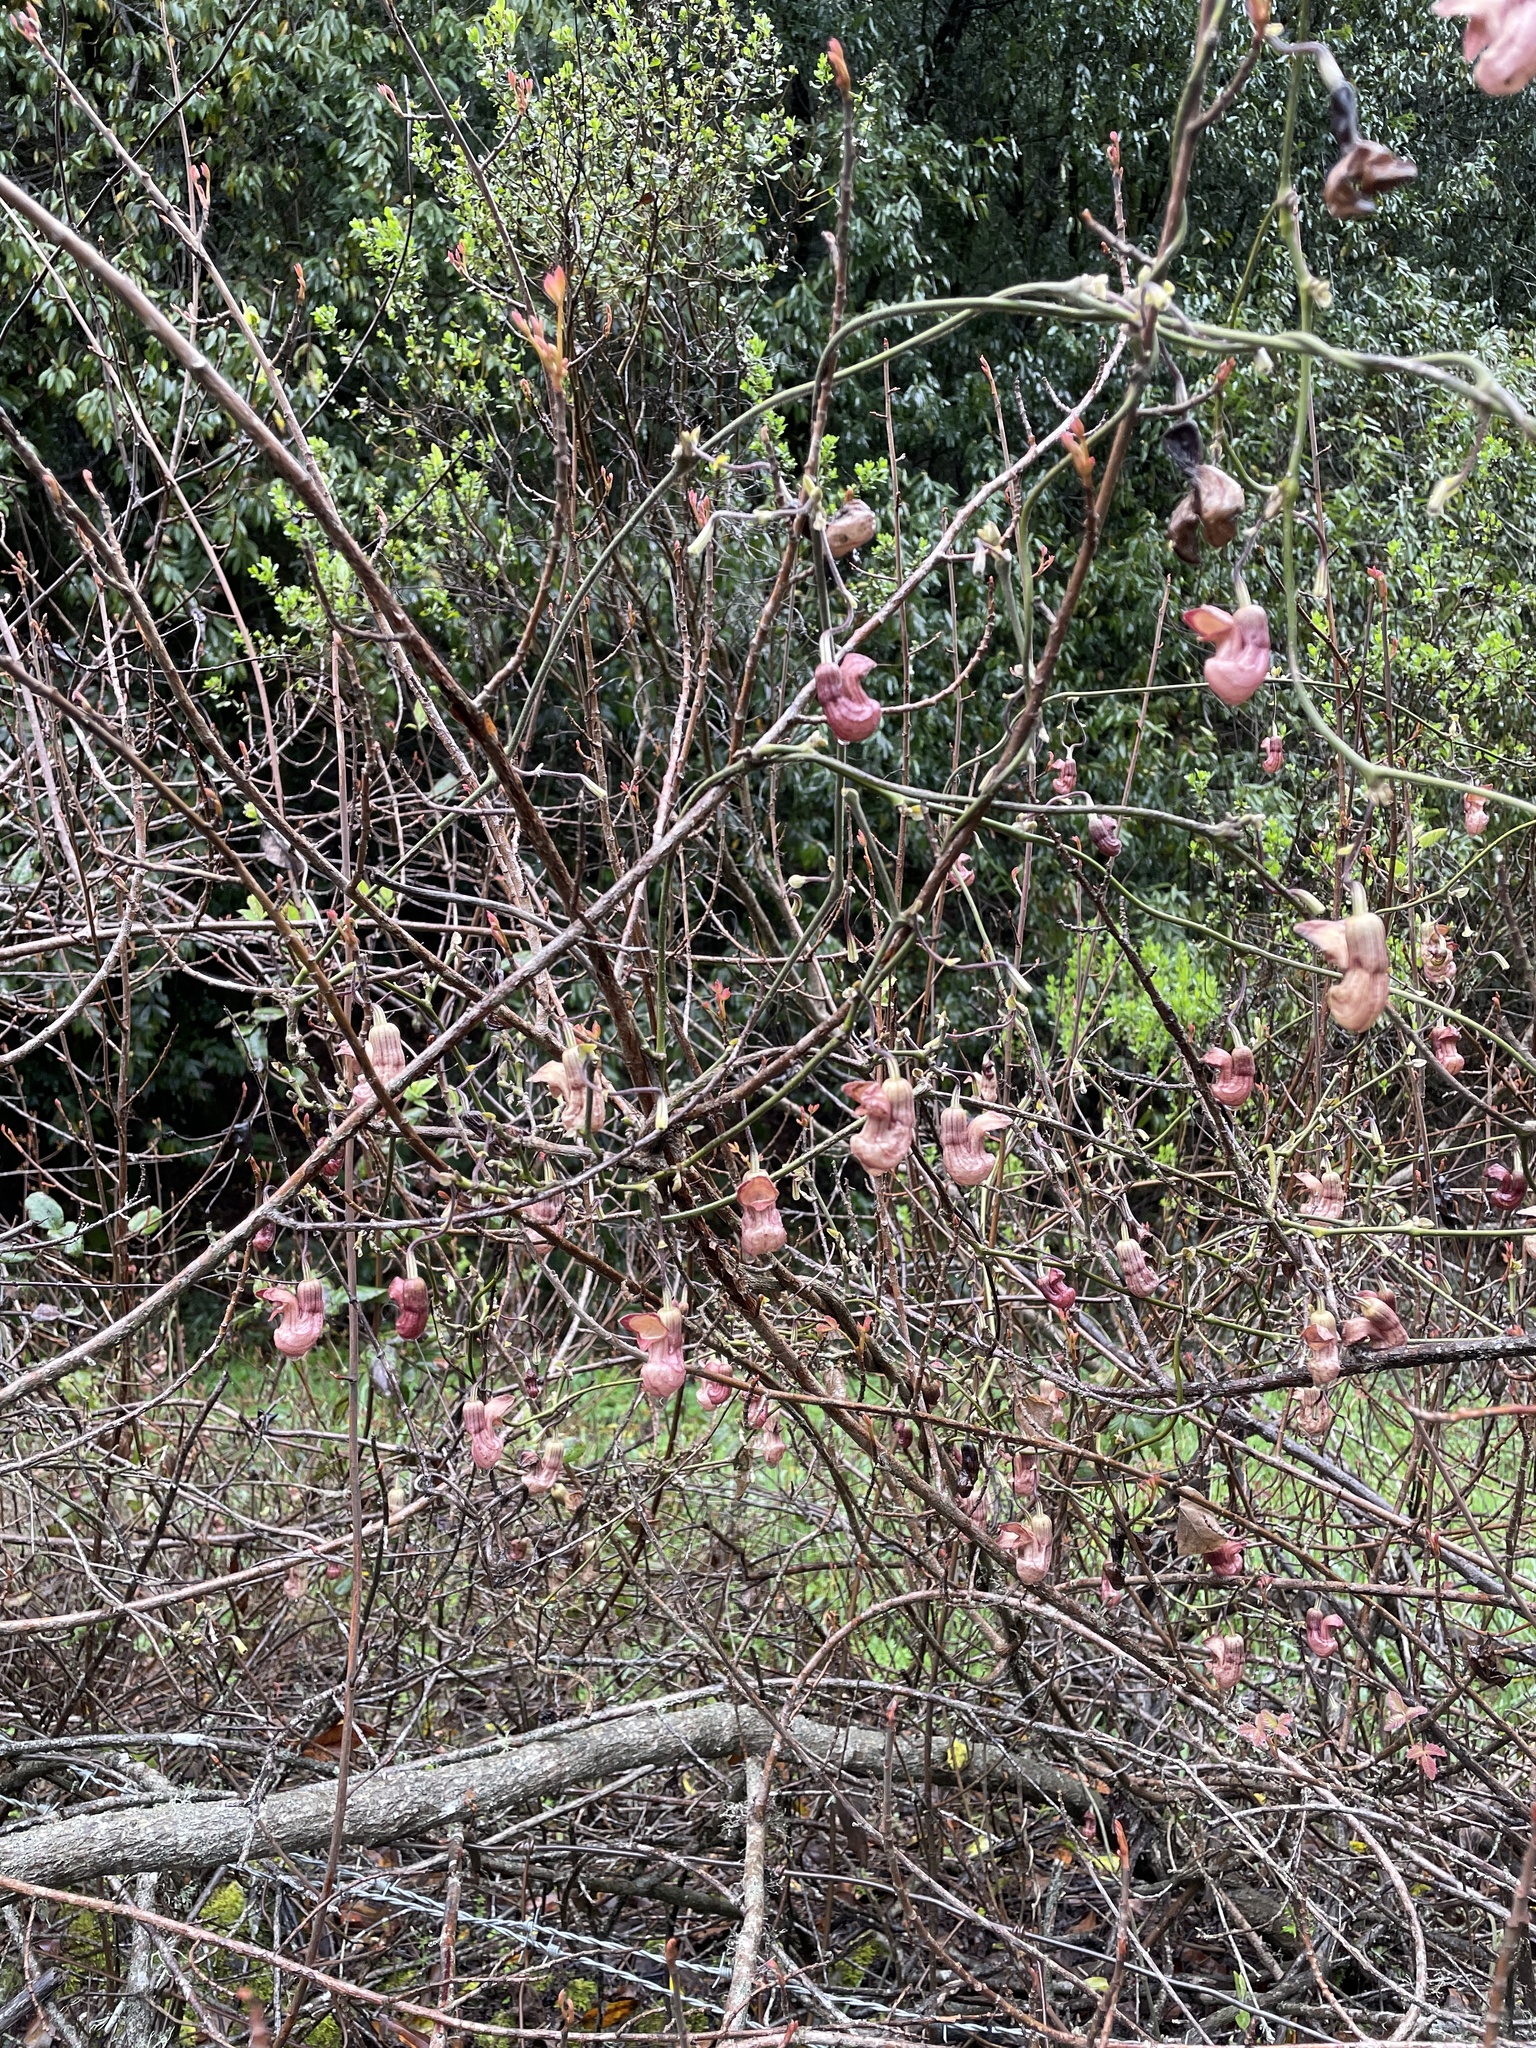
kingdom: Plantae
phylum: Tracheophyta
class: Magnoliopsida
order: Piperales
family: Aristolochiaceae
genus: Isotrema
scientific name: Isotrema californicum
